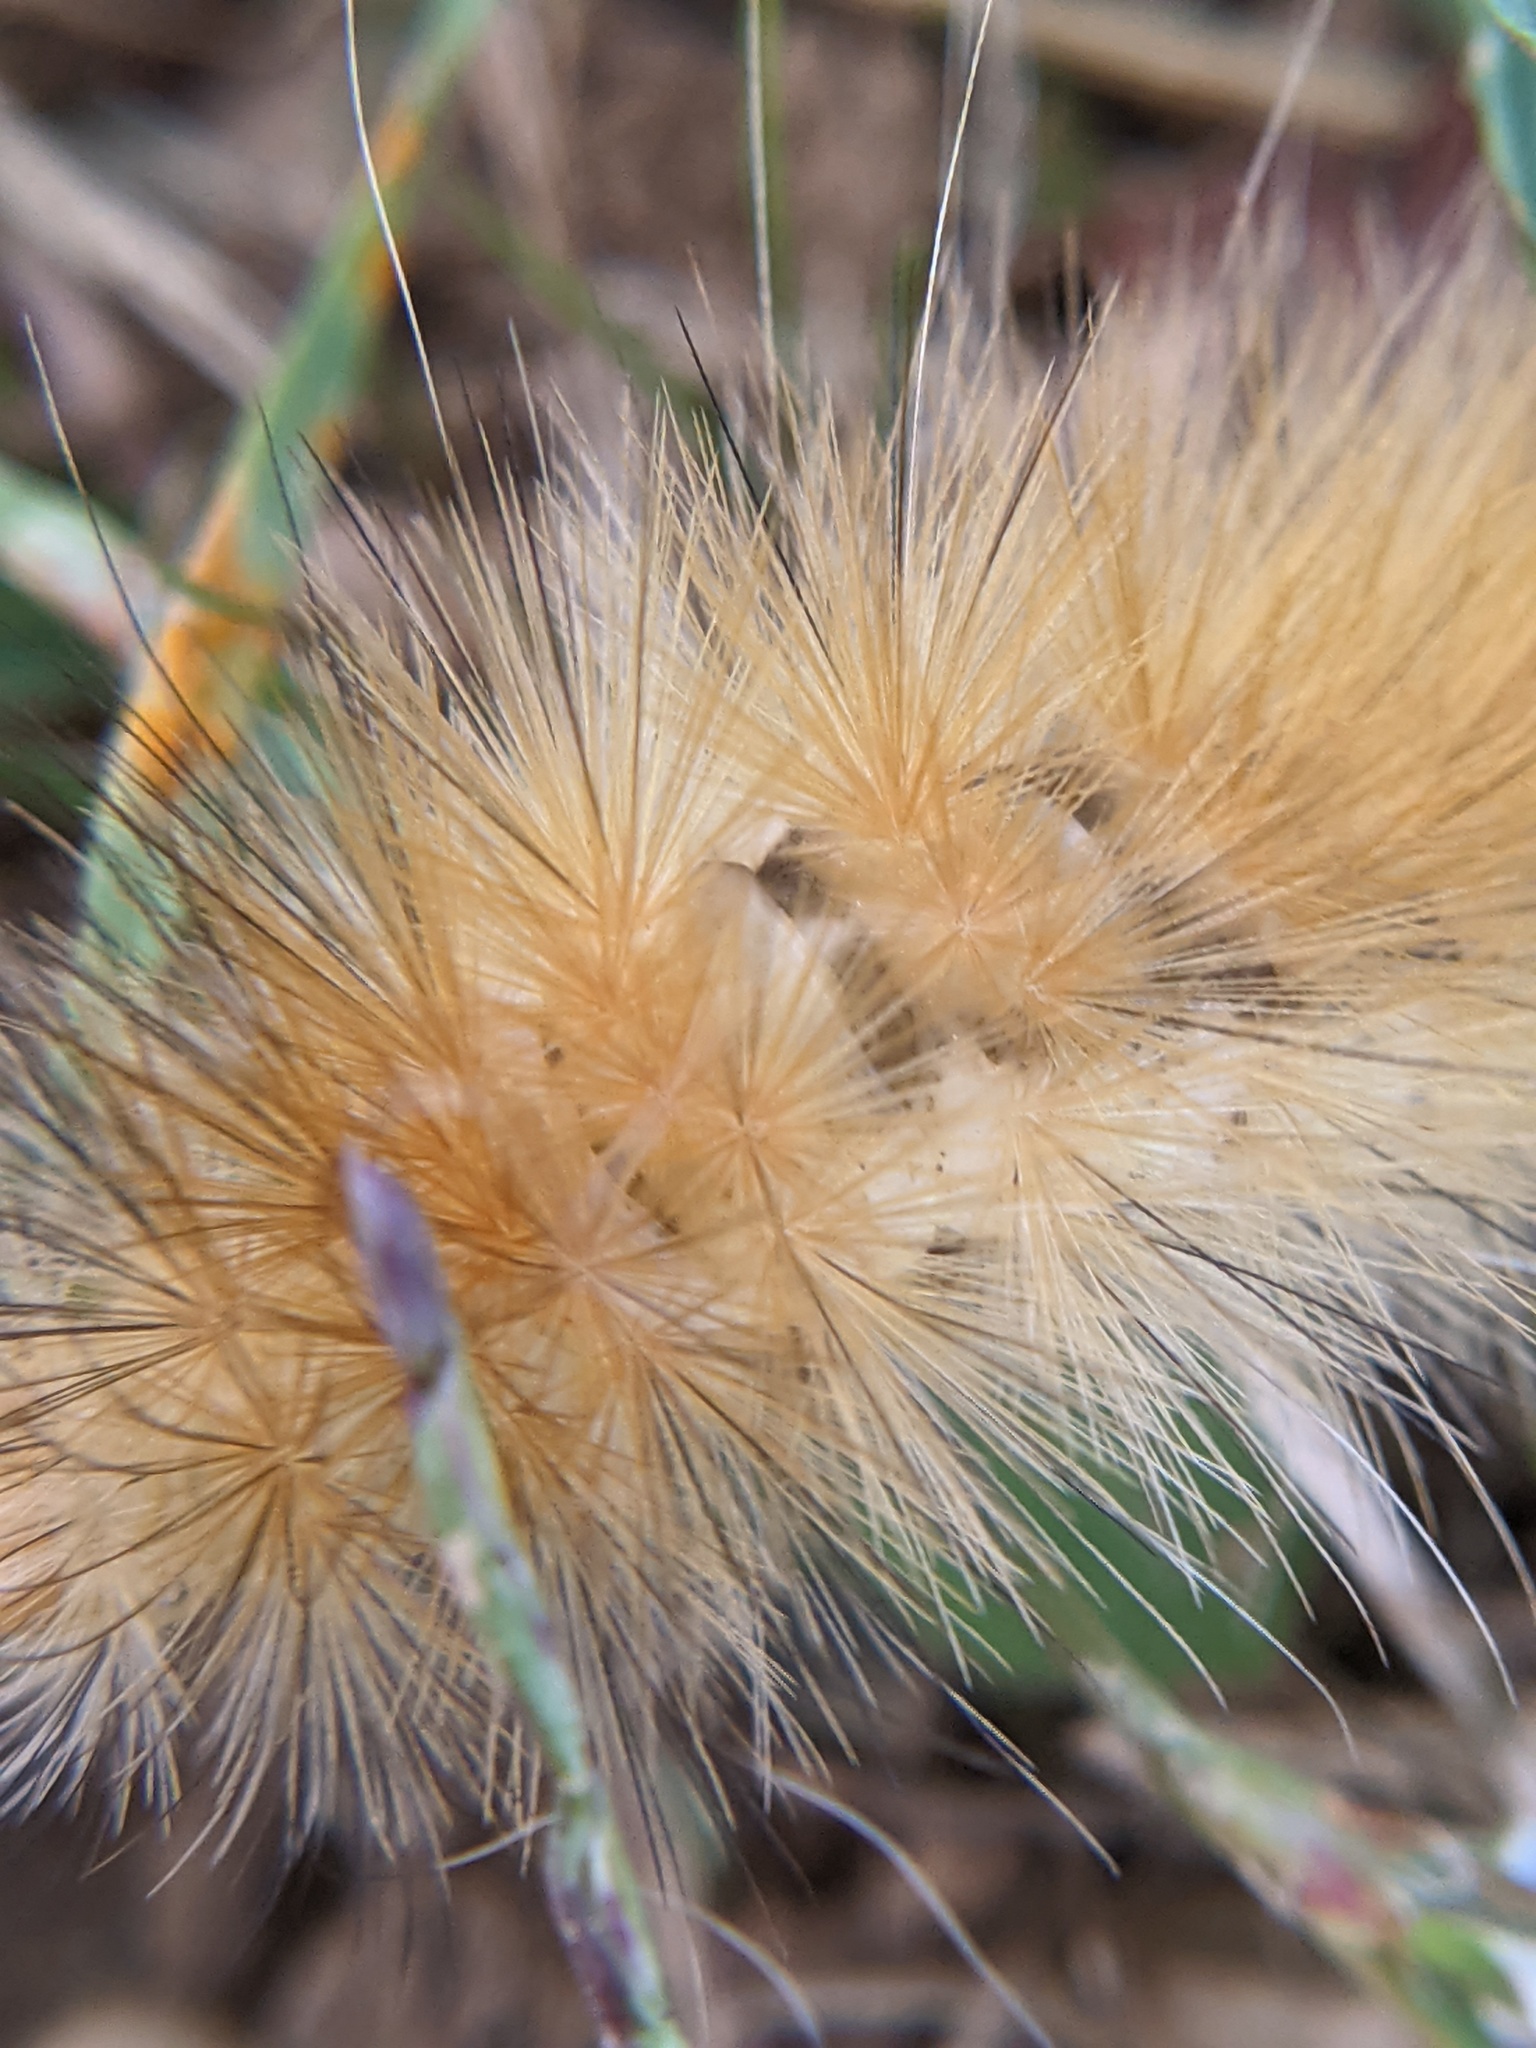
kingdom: Animalia
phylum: Arthropoda
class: Insecta
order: Lepidoptera
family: Erebidae
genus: Spilosoma
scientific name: Spilosoma virginica
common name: Virginia tiger moth
